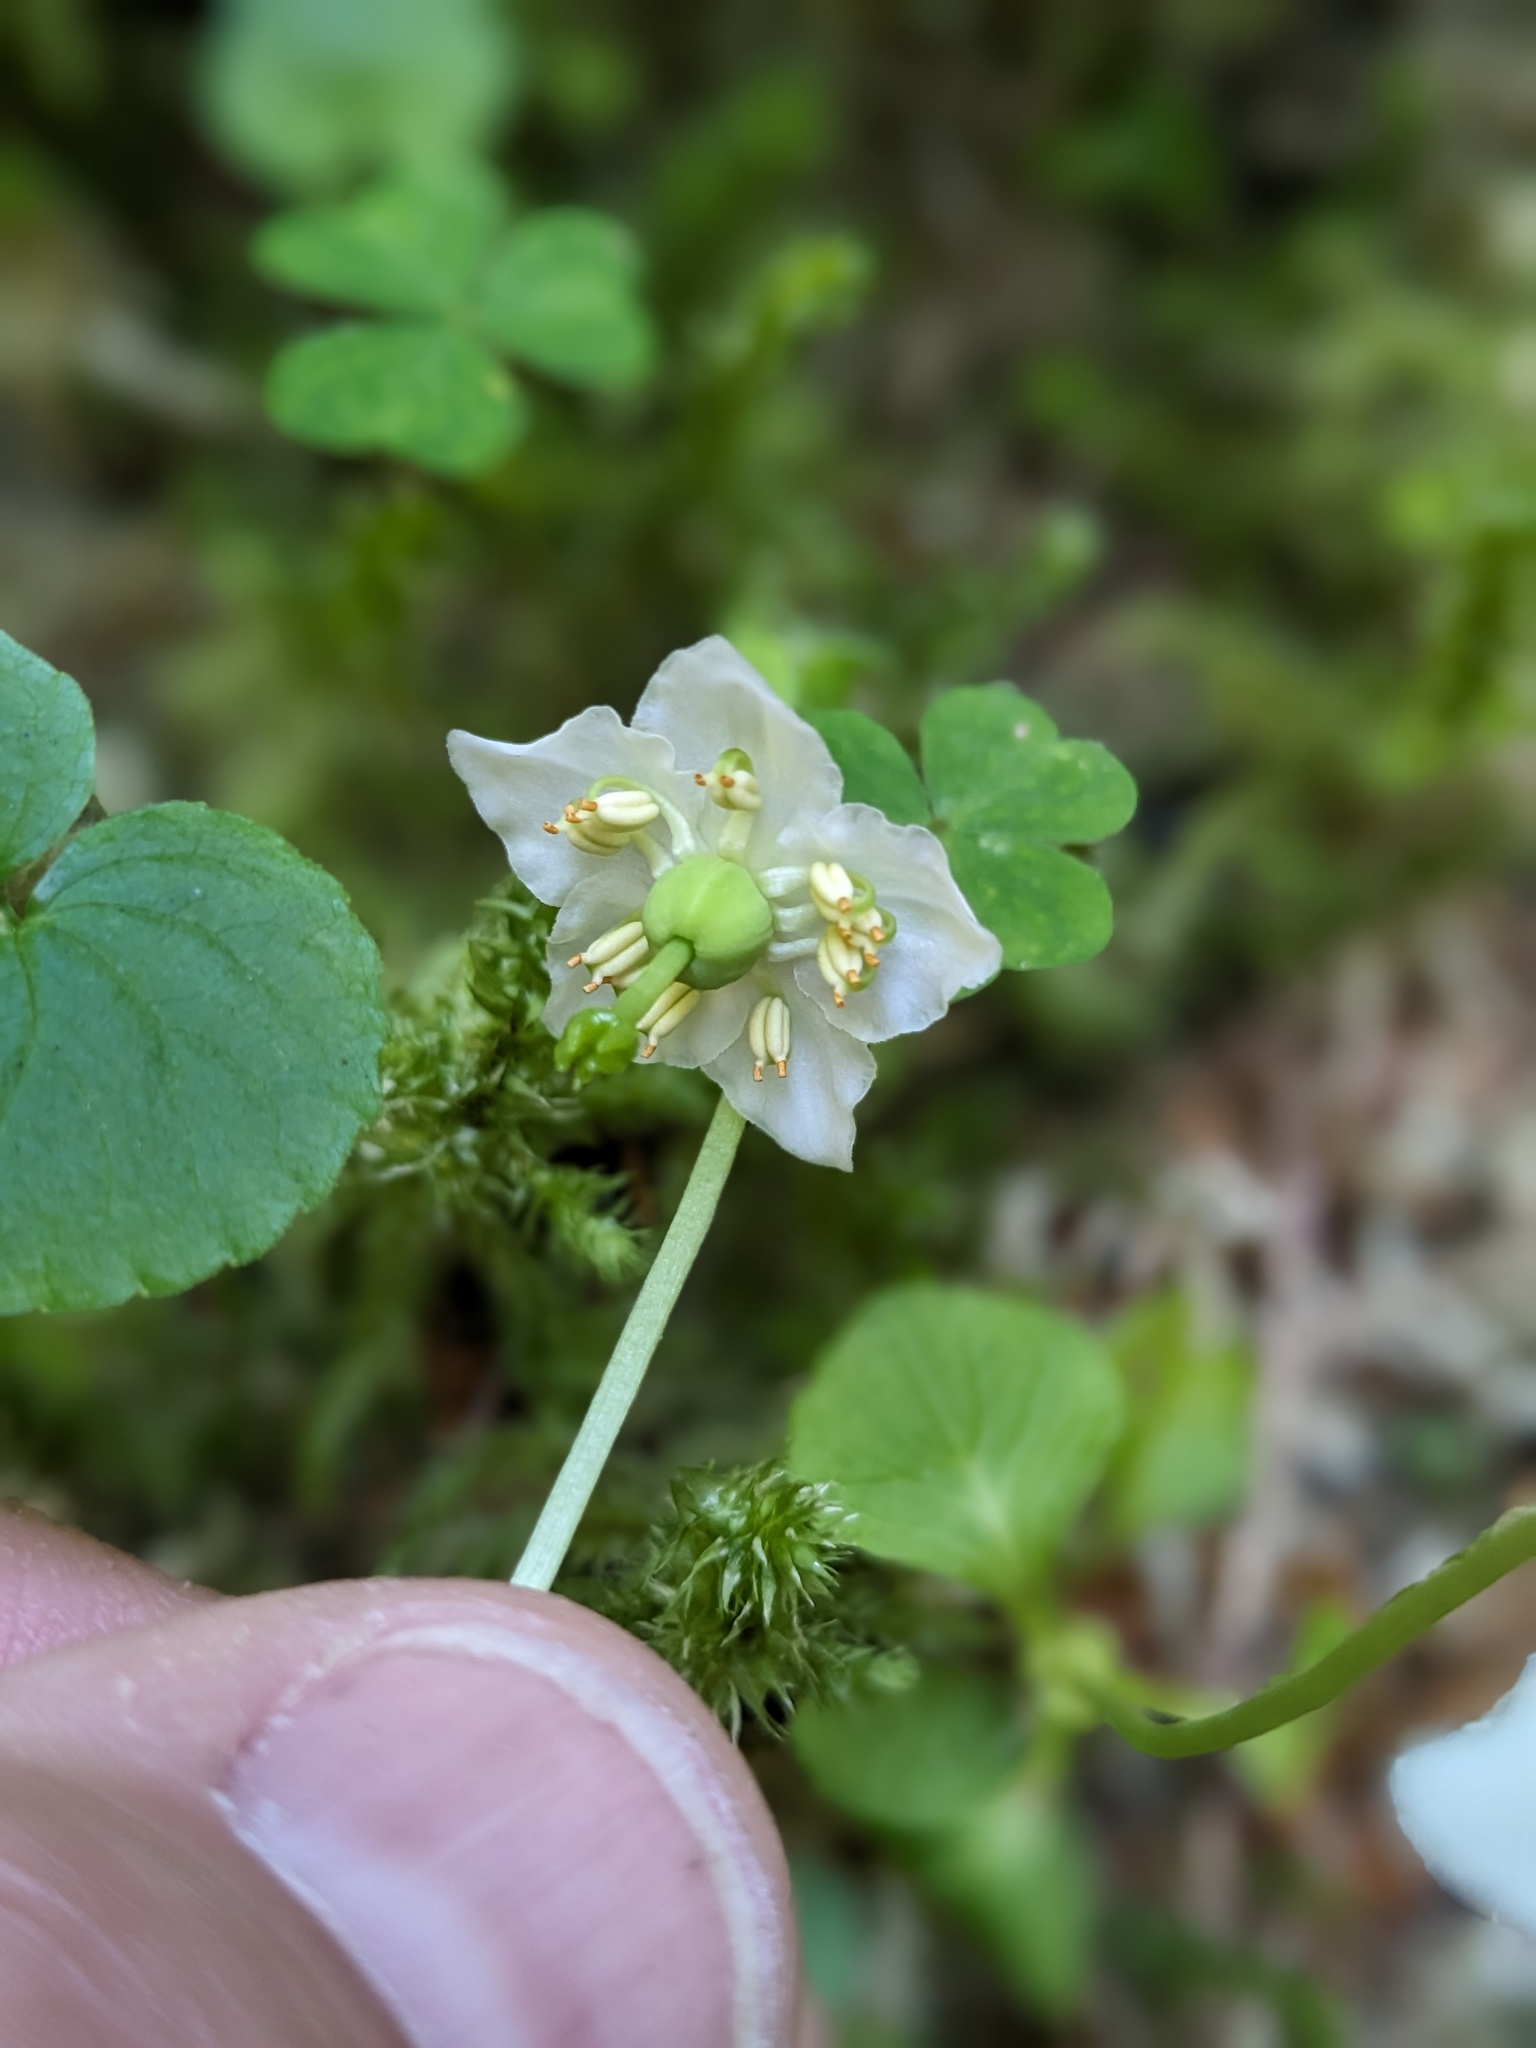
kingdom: Plantae
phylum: Tracheophyta
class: Magnoliopsida
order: Ericales
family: Ericaceae
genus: Moneses
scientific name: Moneses uniflora
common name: One-flowered wintergreen
